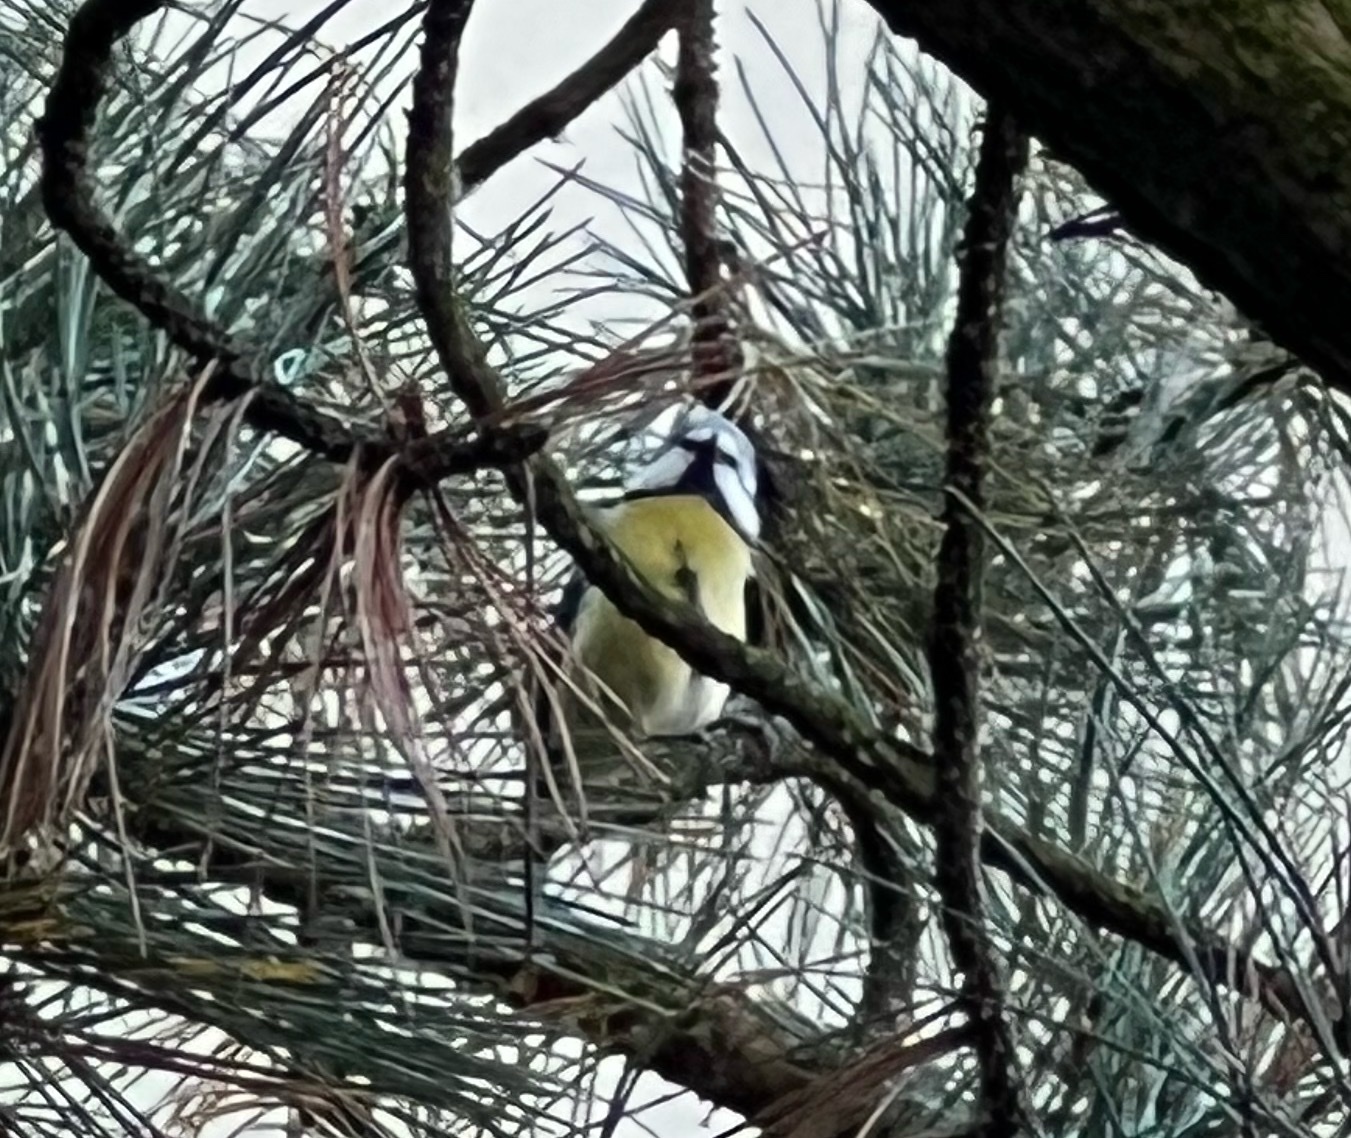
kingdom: Animalia
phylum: Chordata
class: Aves
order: Passeriformes
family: Paridae
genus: Cyanistes
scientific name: Cyanistes caeruleus
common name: Eurasian blue tit
